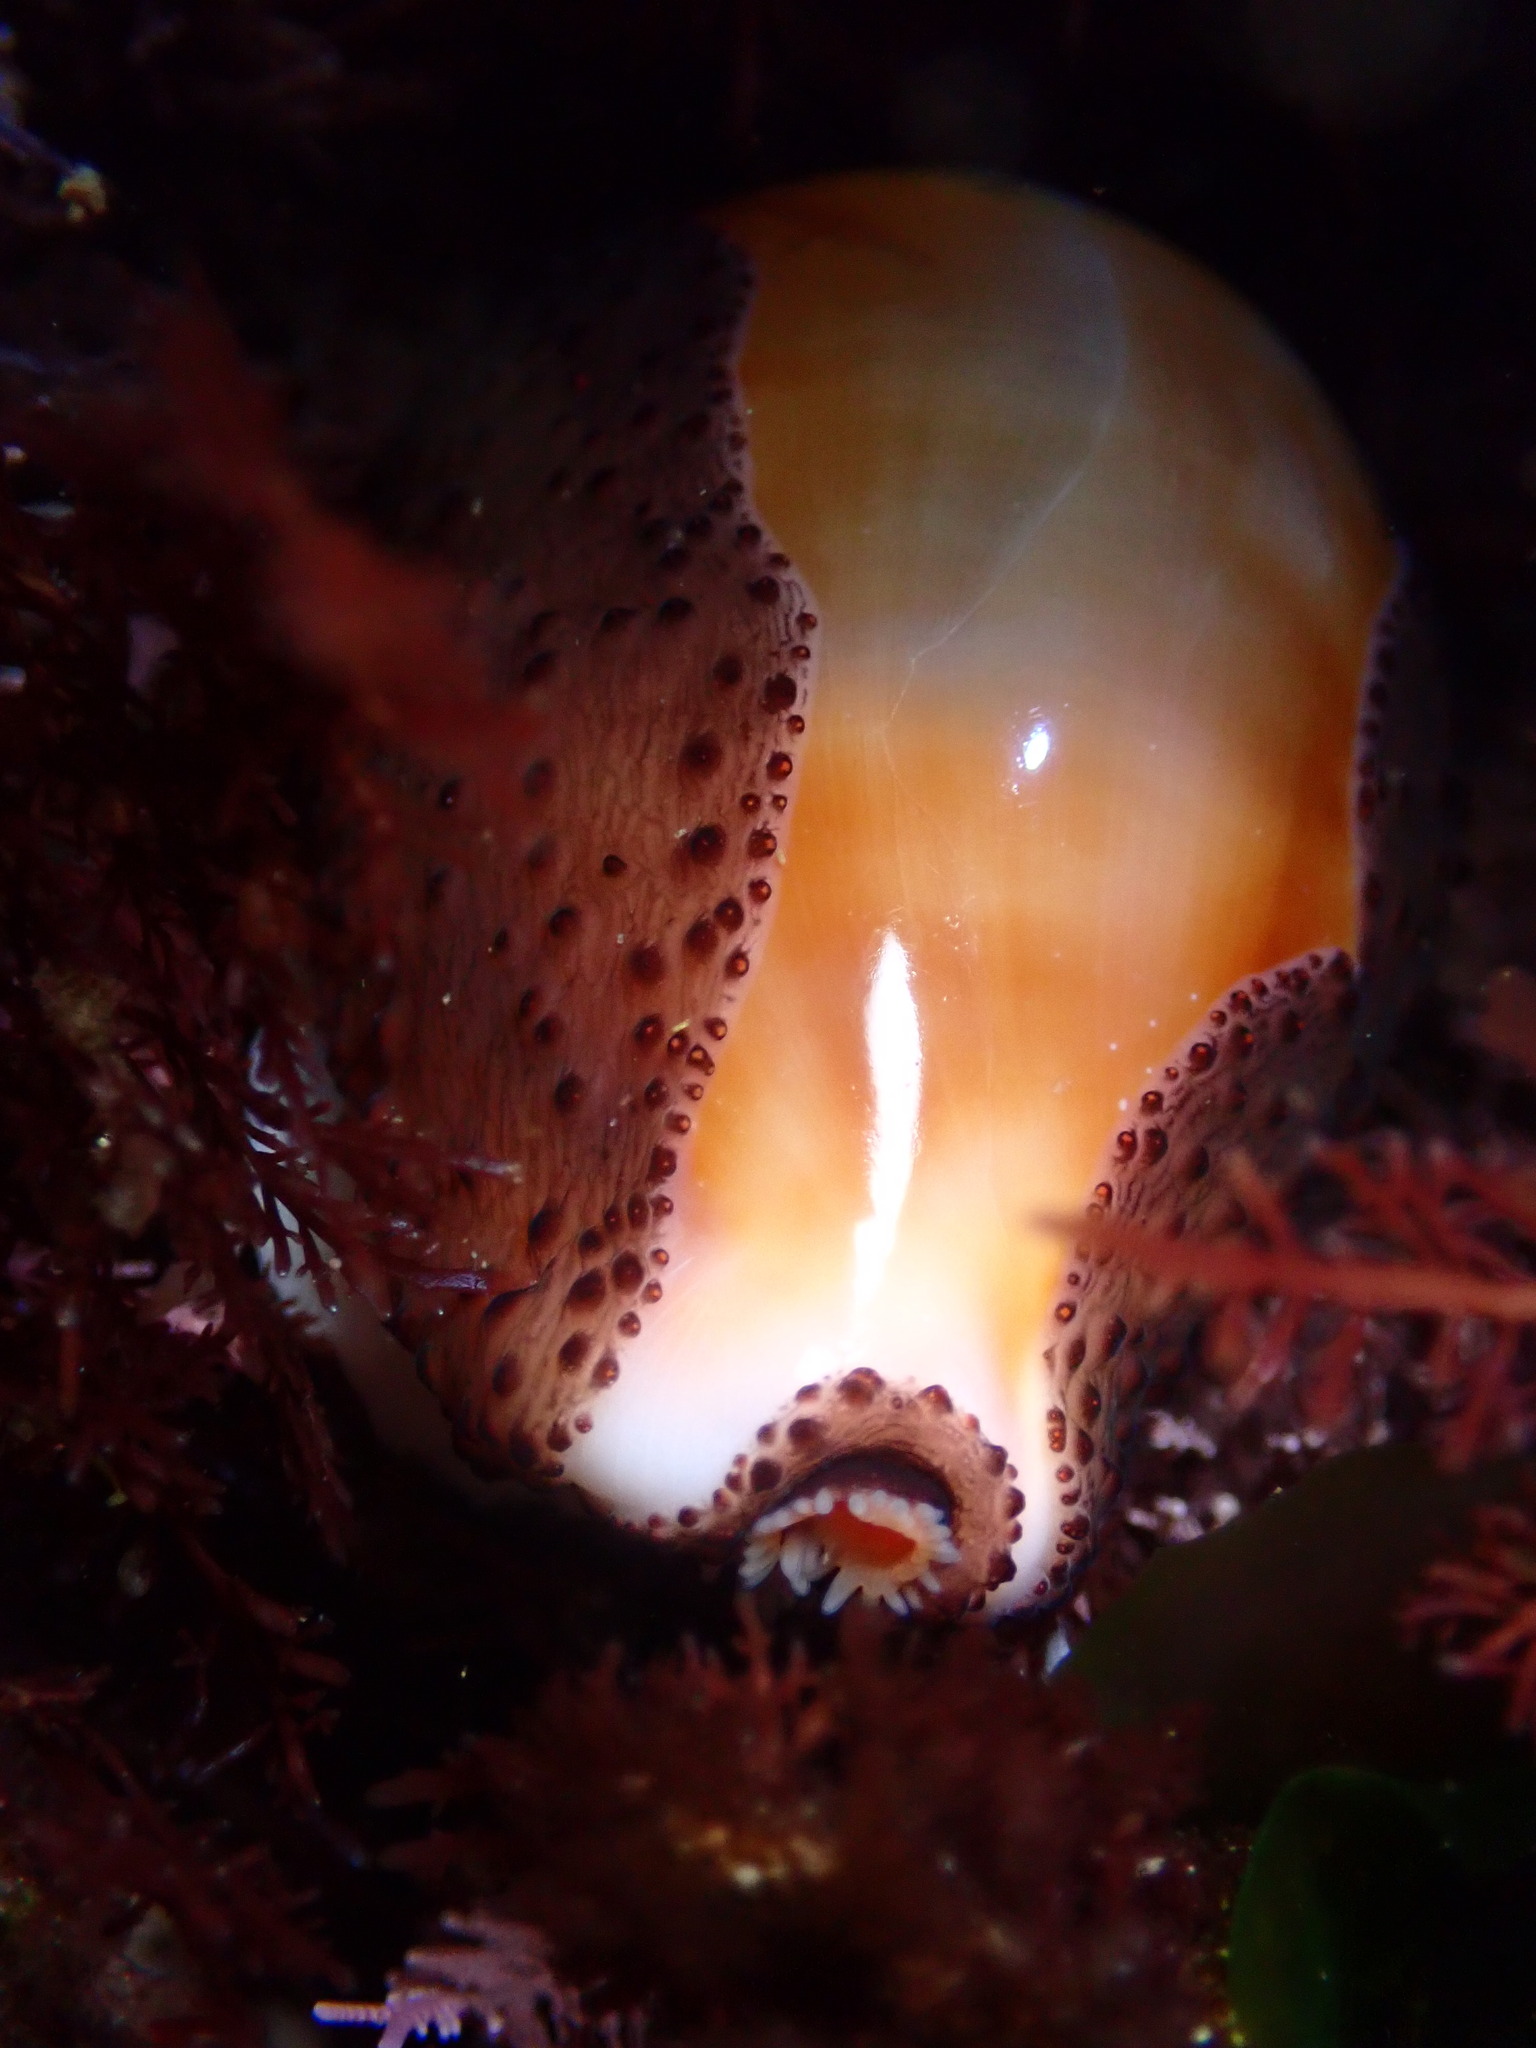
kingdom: Animalia
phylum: Mollusca
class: Gastropoda
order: Littorinimorpha
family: Cypraeidae
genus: Neobernaya
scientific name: Neobernaya spadicea
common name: Chestnut cowrie
